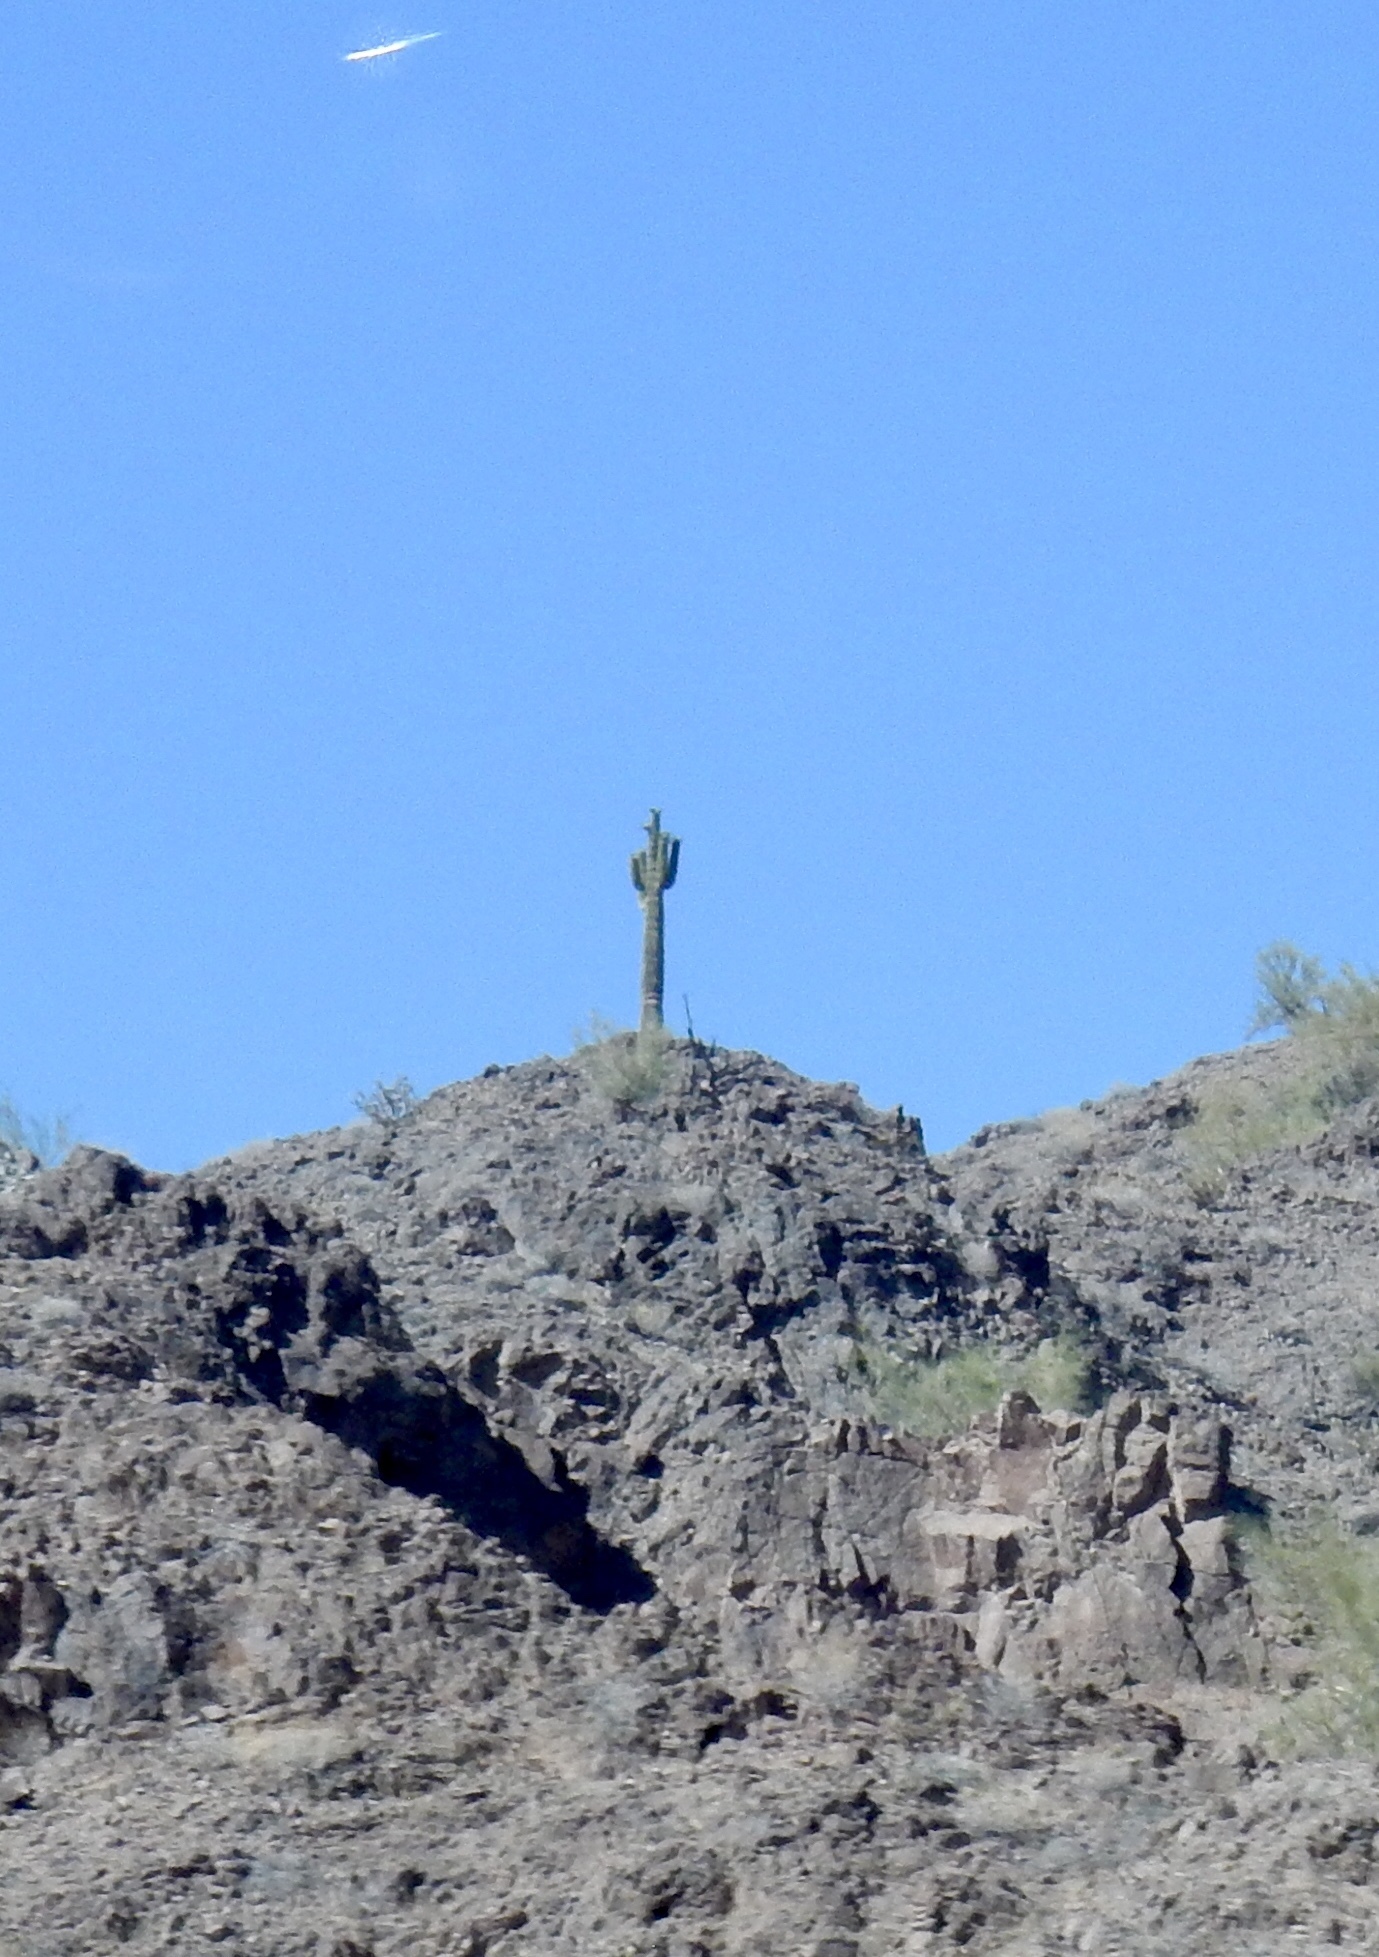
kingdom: Plantae
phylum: Tracheophyta
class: Magnoliopsida
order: Caryophyllales
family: Cactaceae
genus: Carnegiea
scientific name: Carnegiea gigantea
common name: Saguaro
